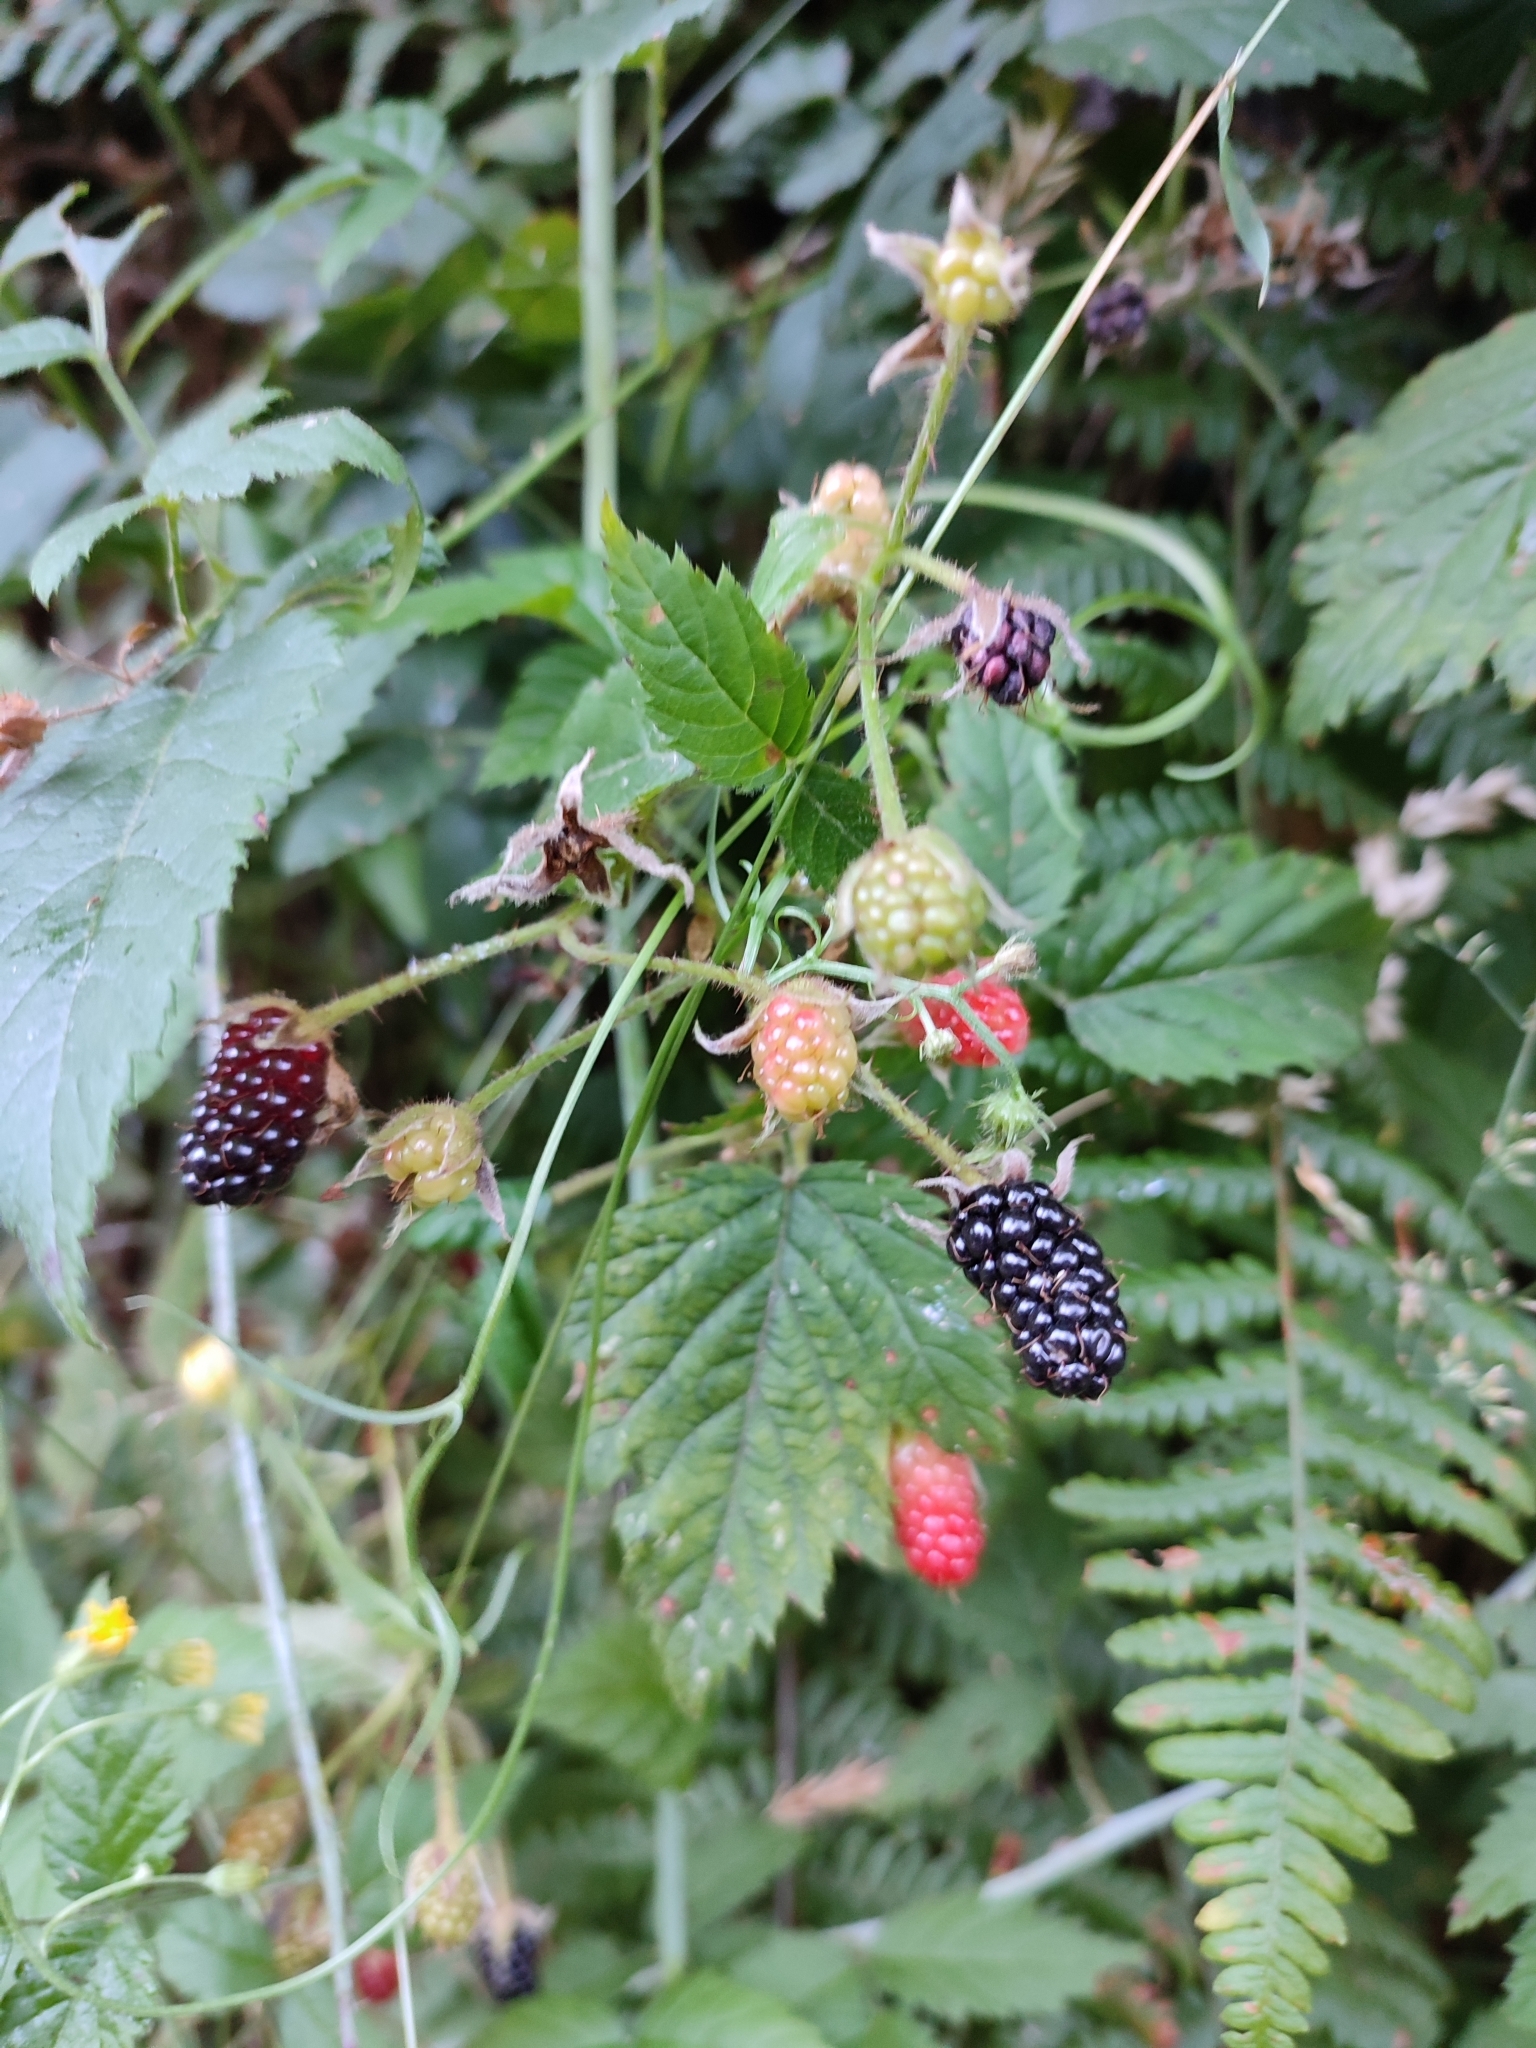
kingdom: Plantae
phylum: Tracheophyta
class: Magnoliopsida
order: Rosales
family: Rosaceae
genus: Rubus
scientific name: Rubus ursinus
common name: Pacific blackberry
